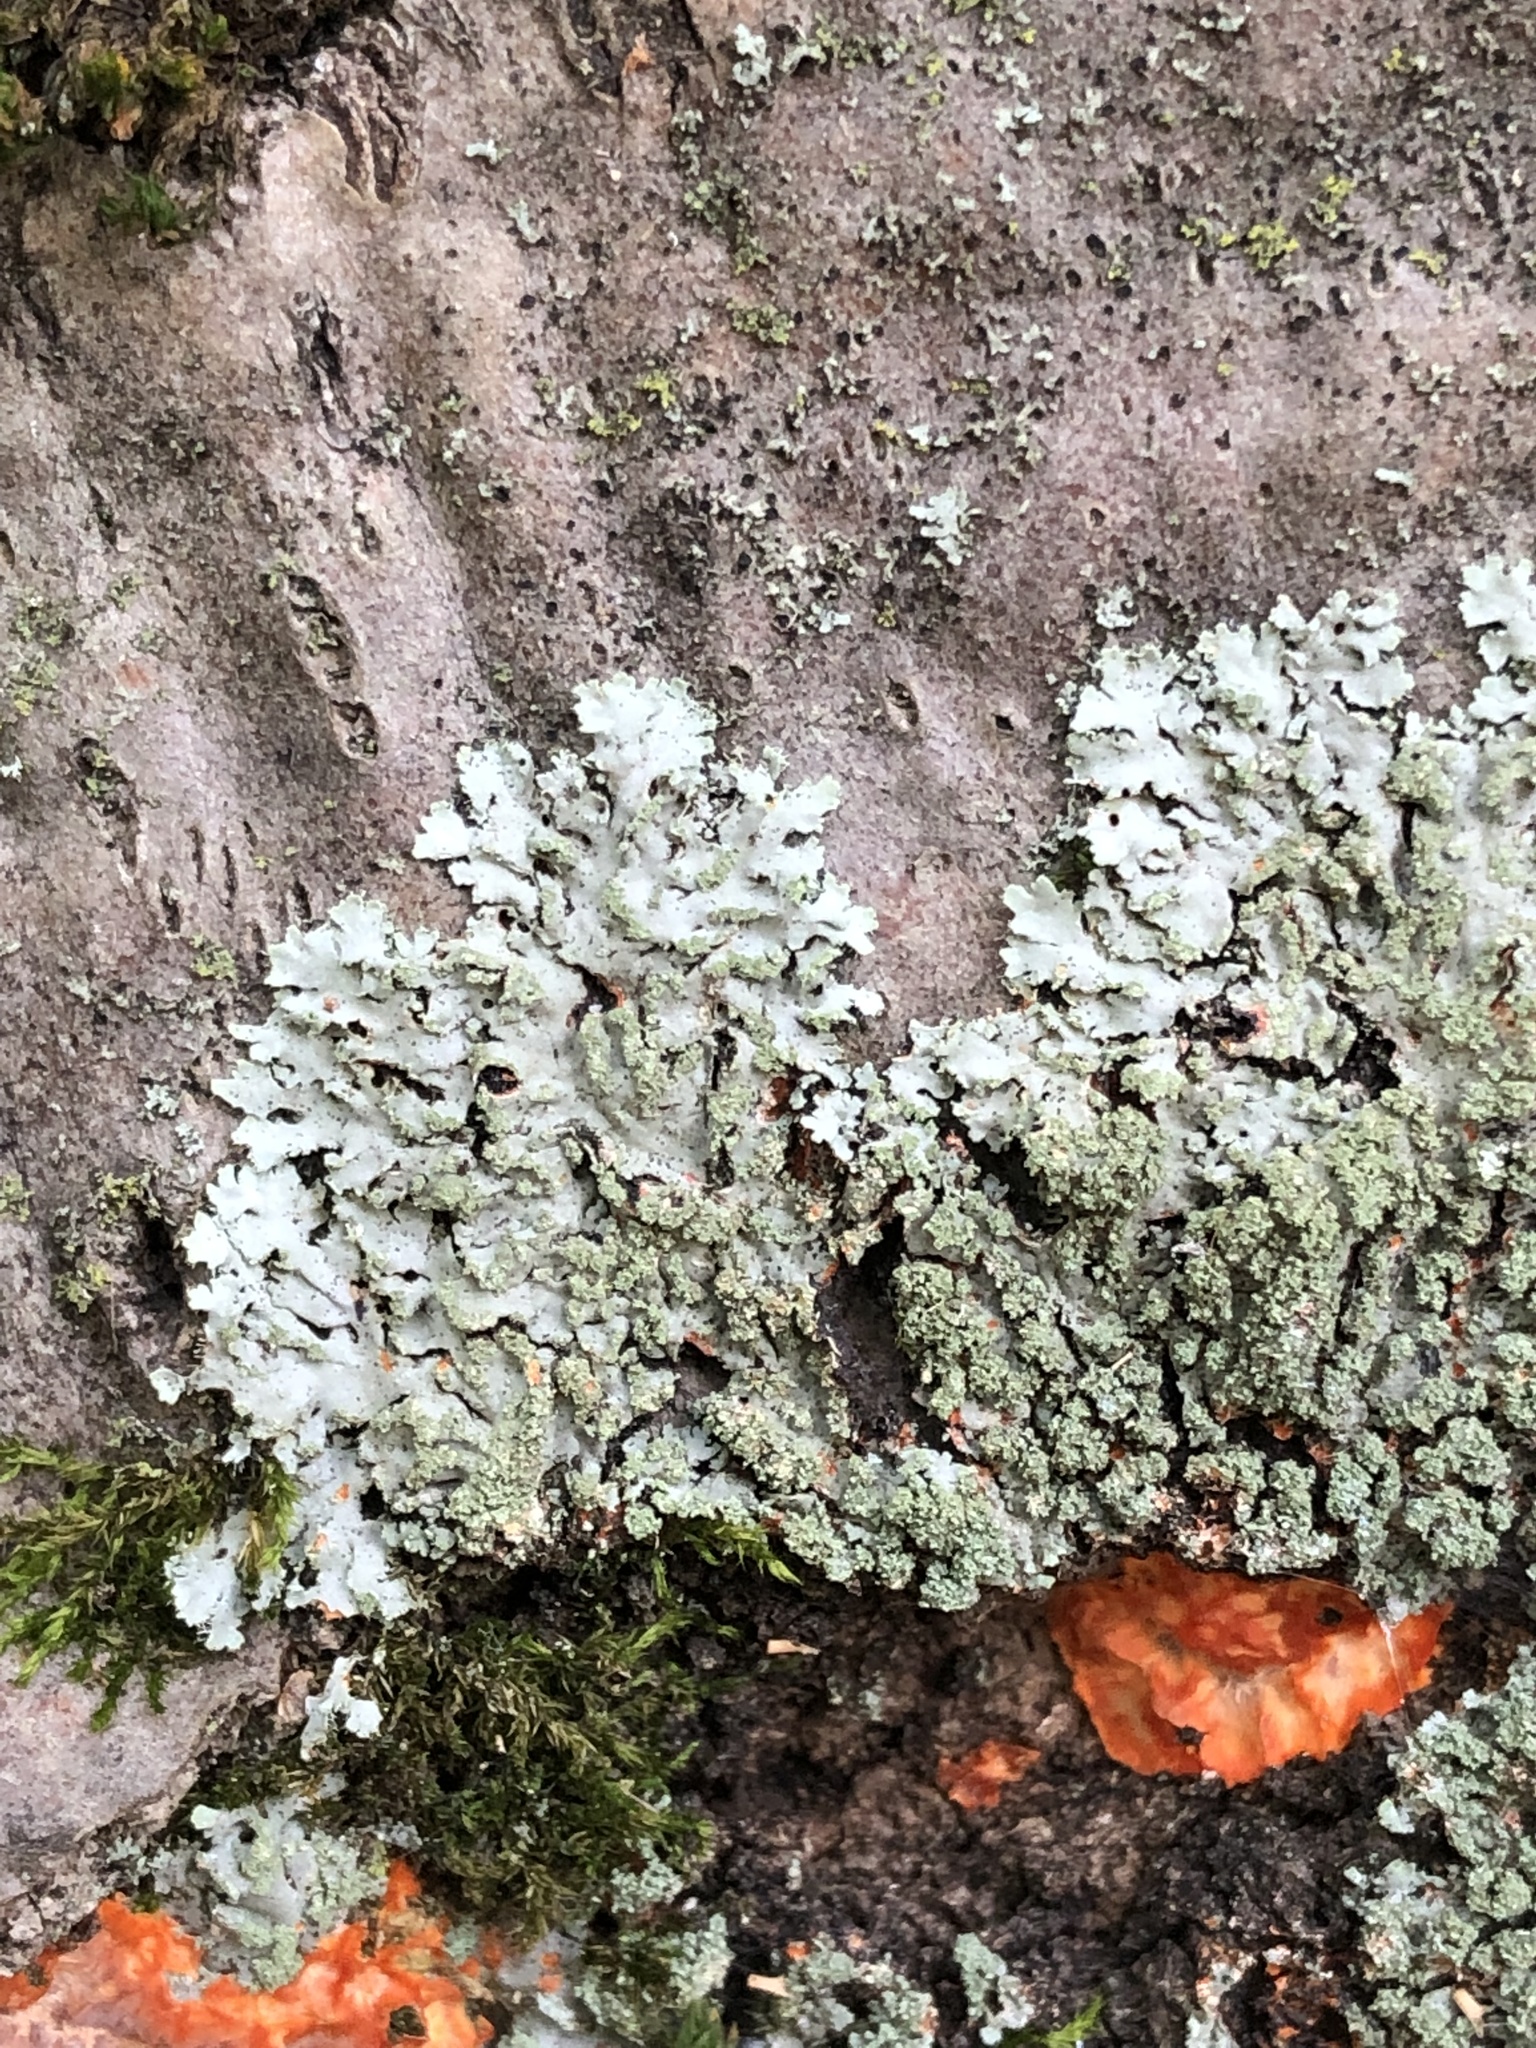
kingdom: Fungi
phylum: Ascomycota
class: Lecanoromycetes
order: Caliciales
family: Physciaceae
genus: Phaeophyscia
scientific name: Phaeophyscia rubropulchra
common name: Orange-cored shadow lichen
